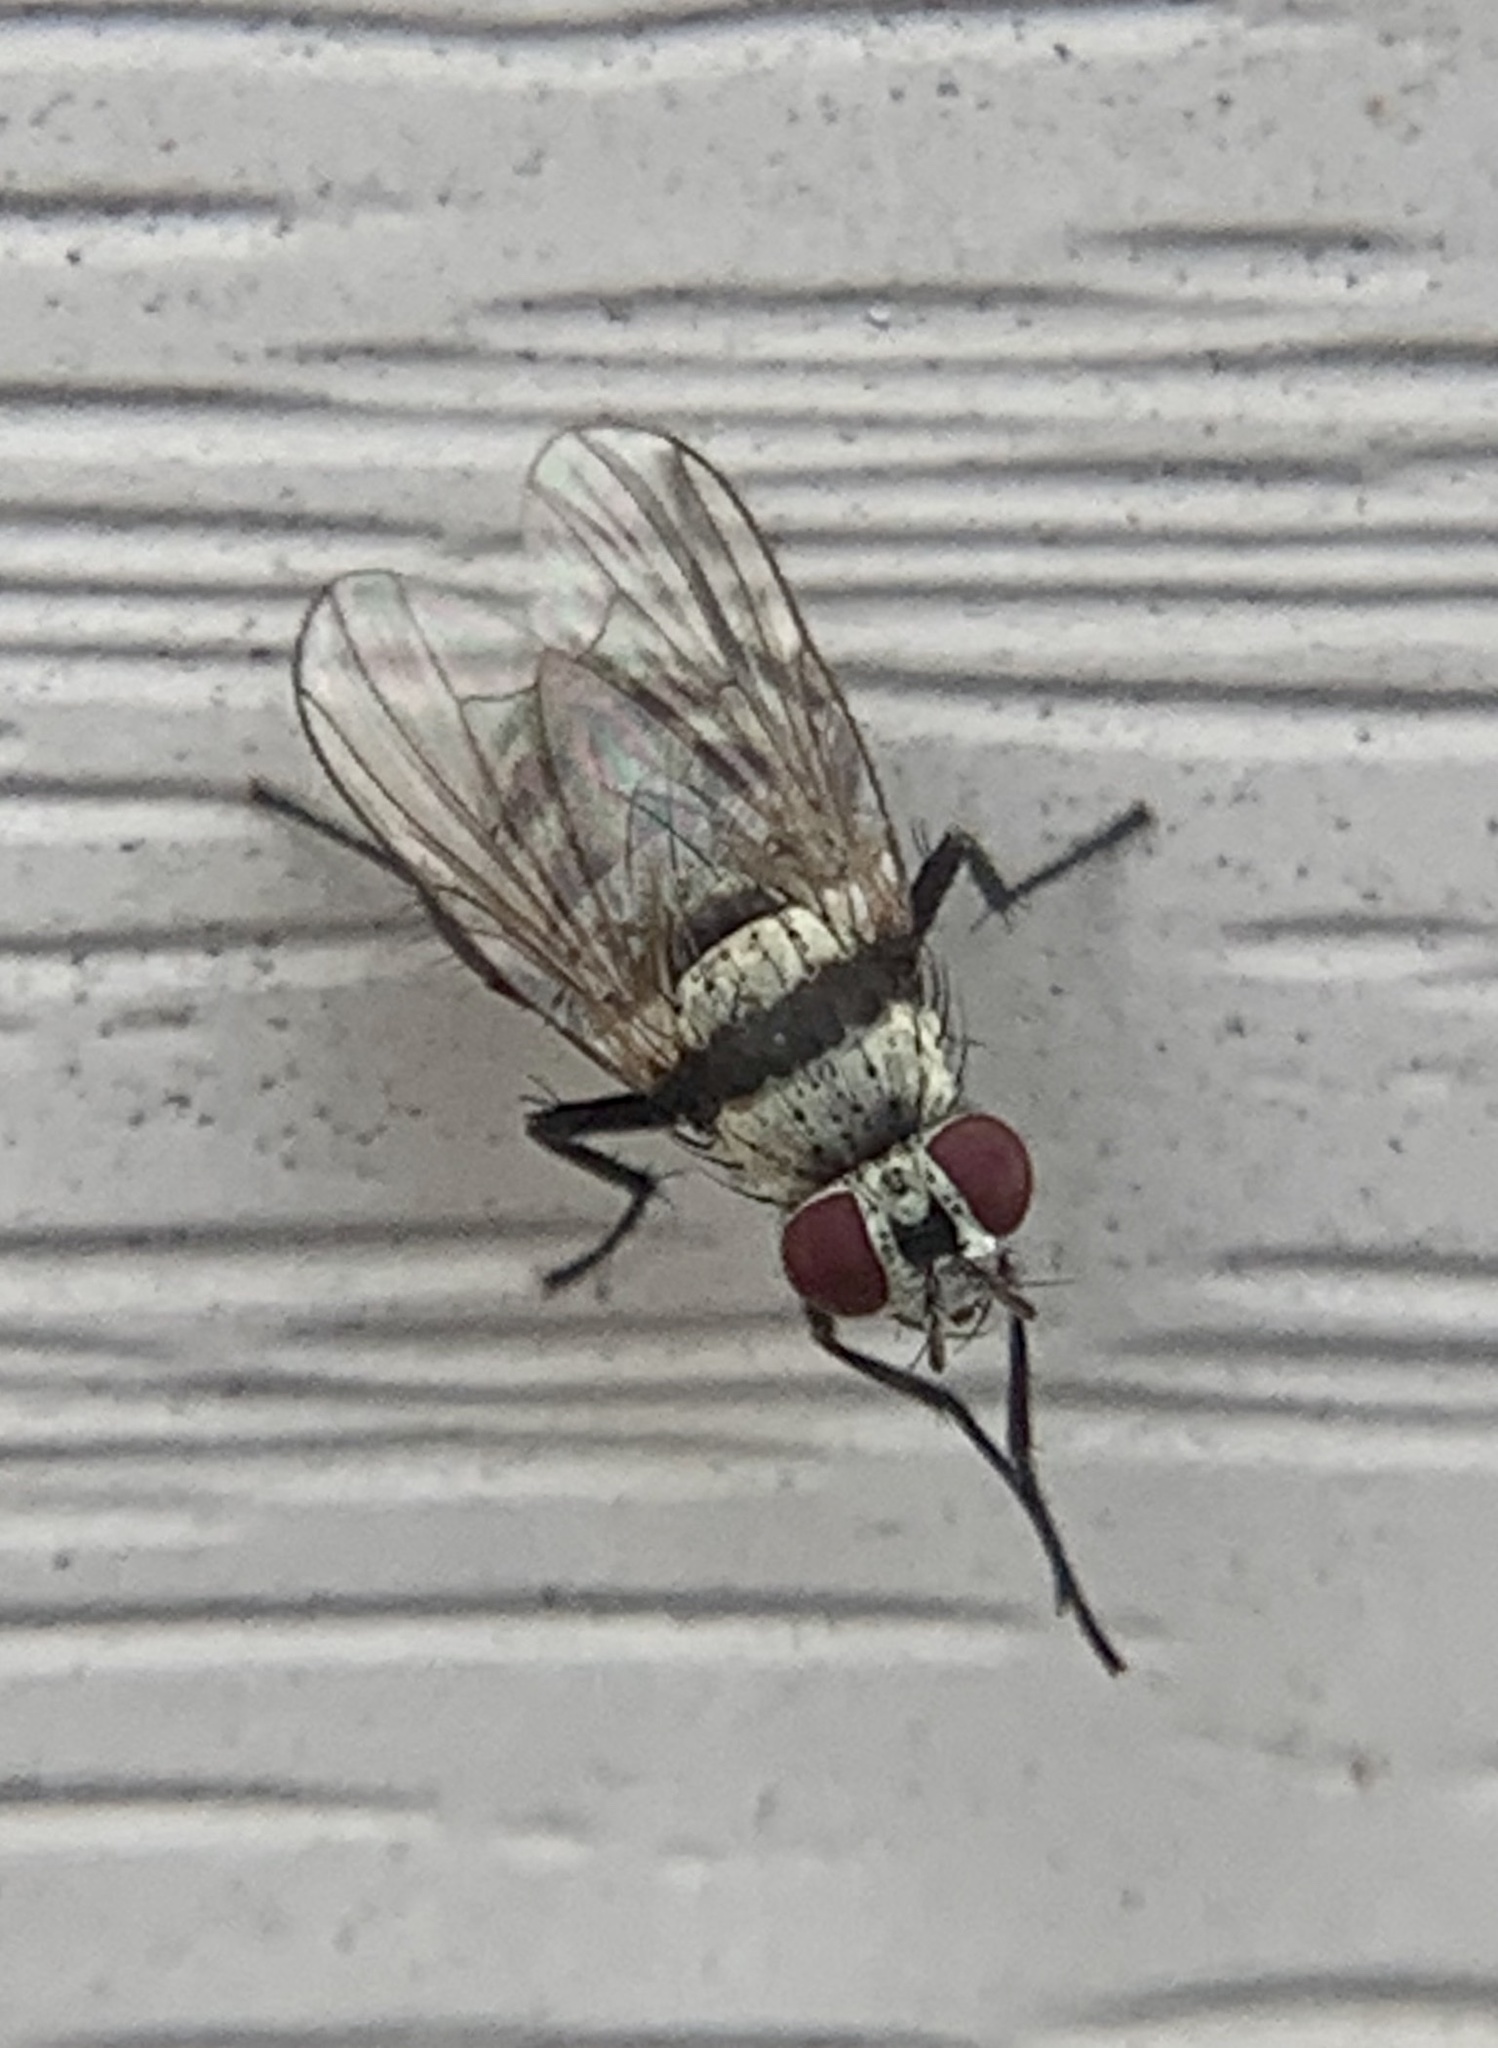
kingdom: Animalia
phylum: Arthropoda
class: Insecta
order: Diptera
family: Anthomyiidae
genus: Anthomyia
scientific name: Anthomyia illocata
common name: Fly
